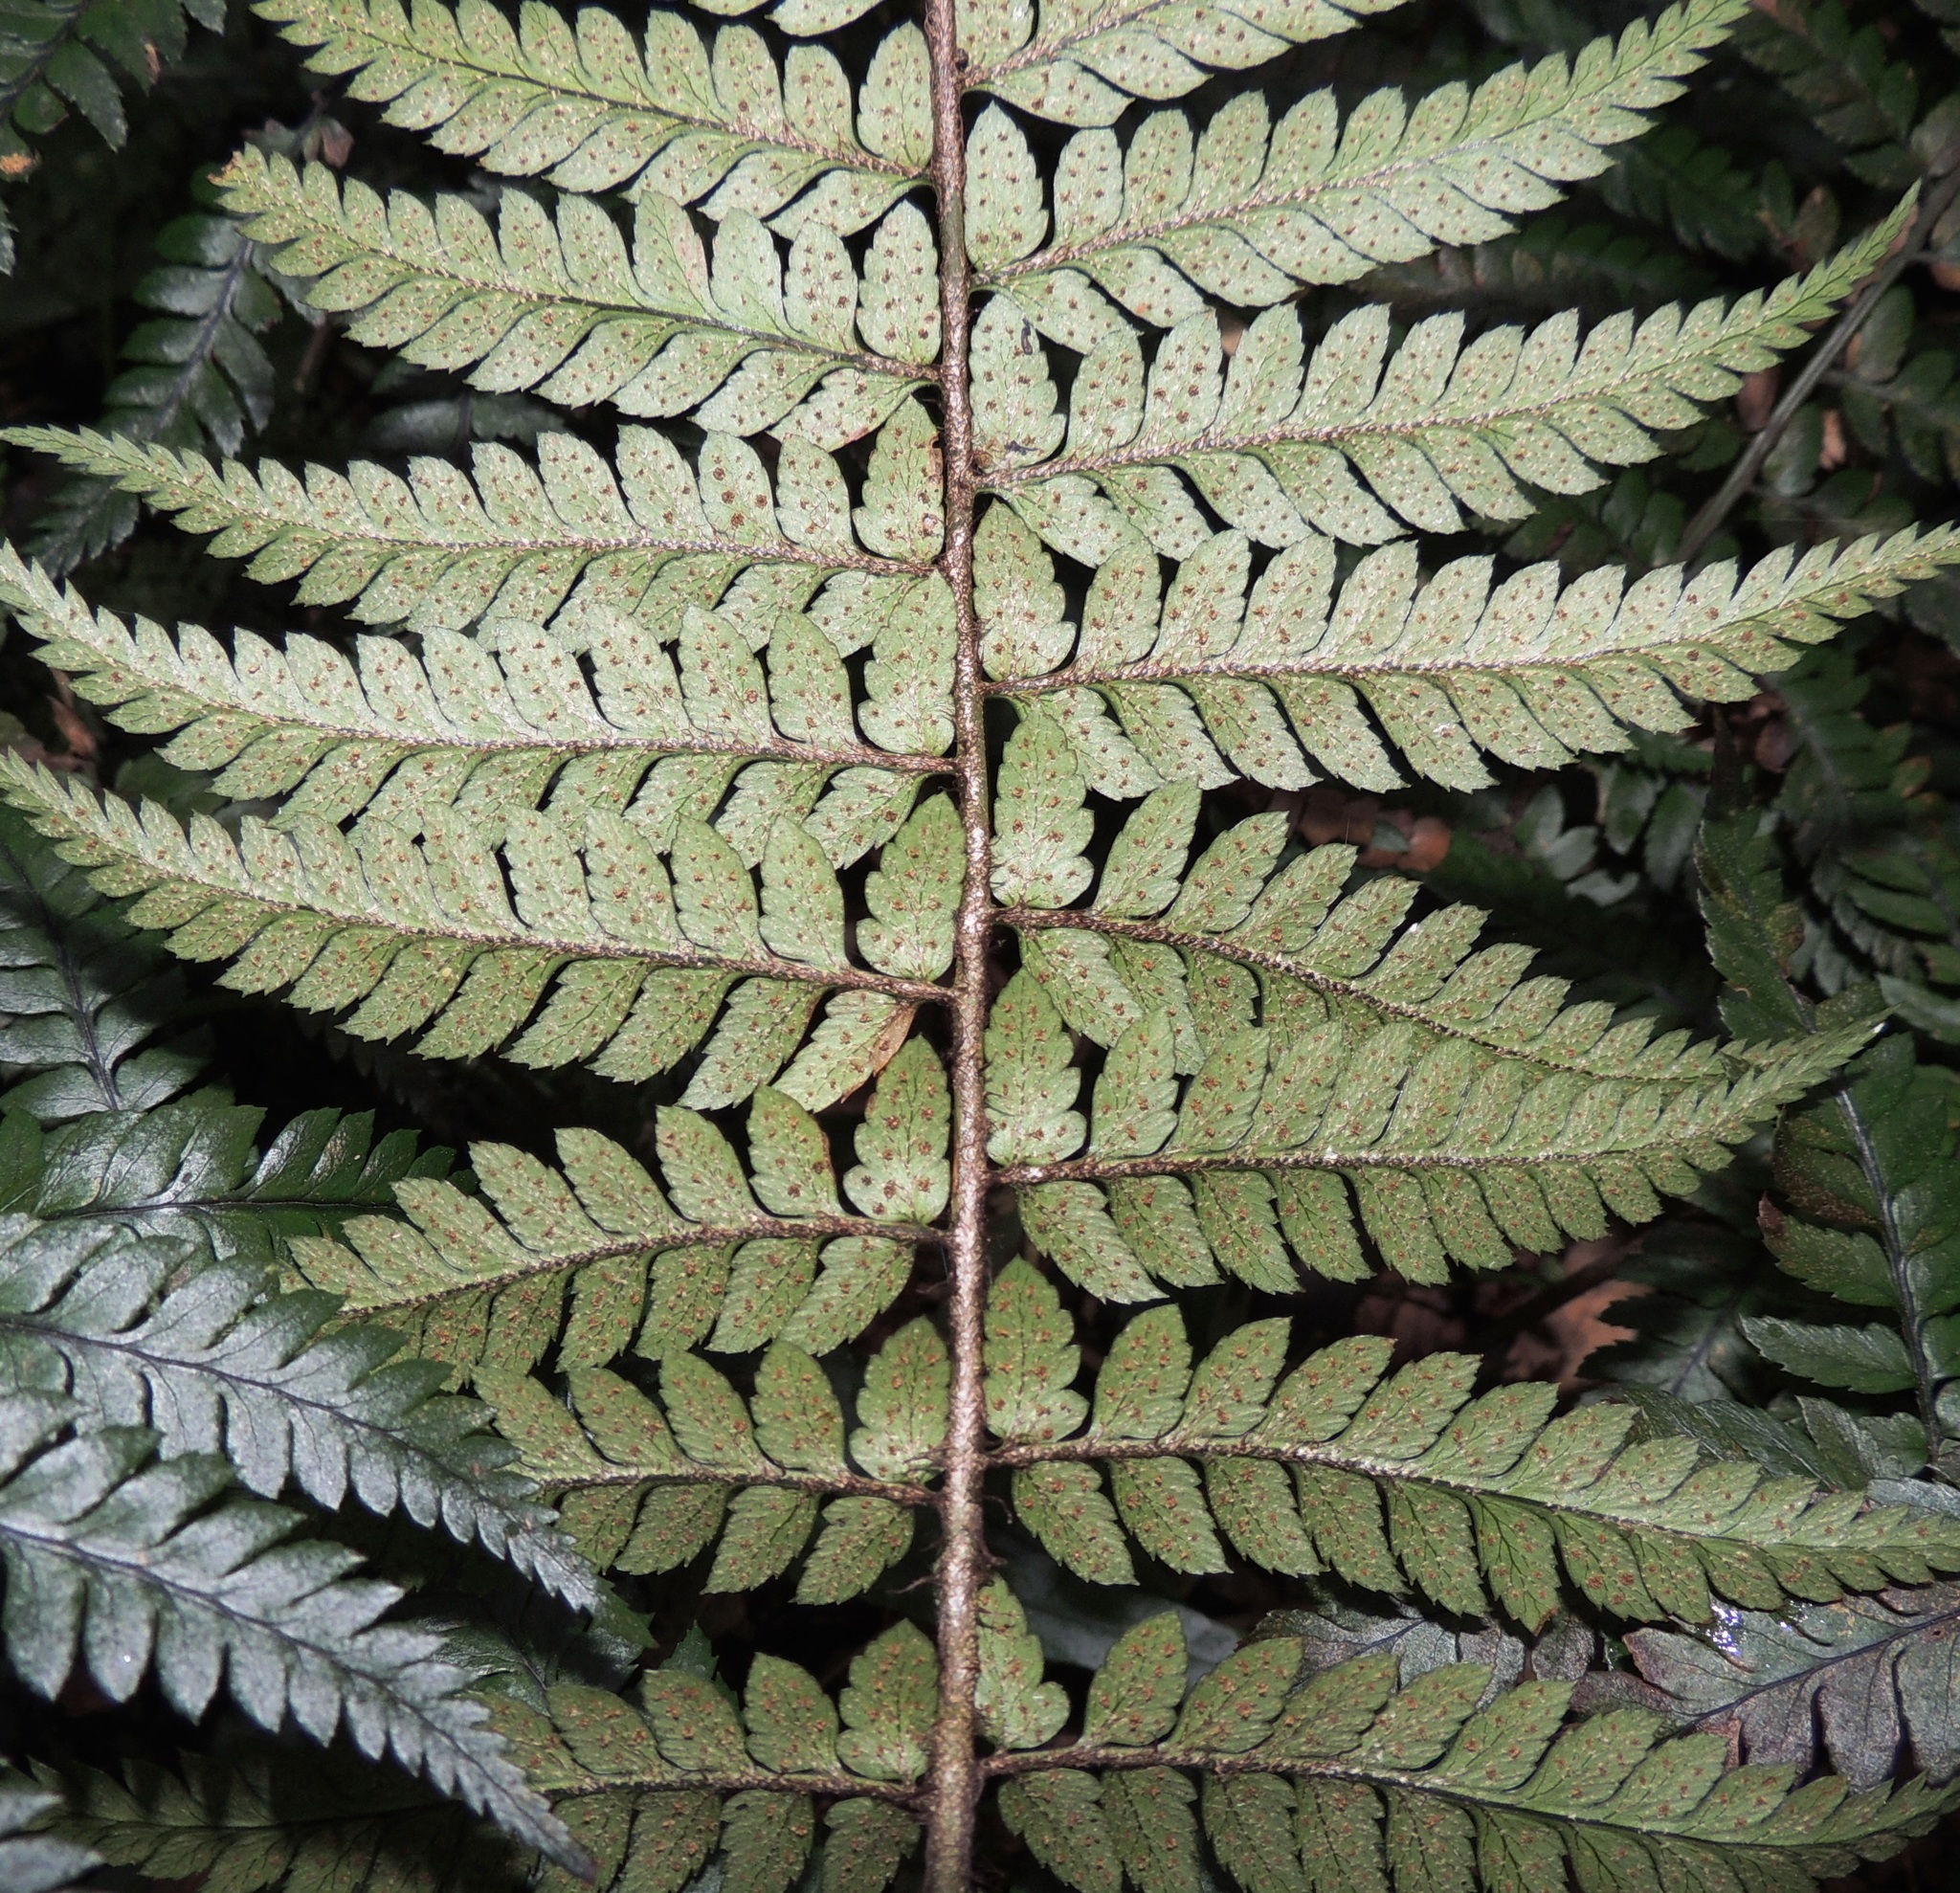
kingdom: Plantae
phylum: Tracheophyta
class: Polypodiopsida
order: Polypodiales
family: Dryopteridaceae
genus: Polystichum
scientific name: Polystichum wawranum
